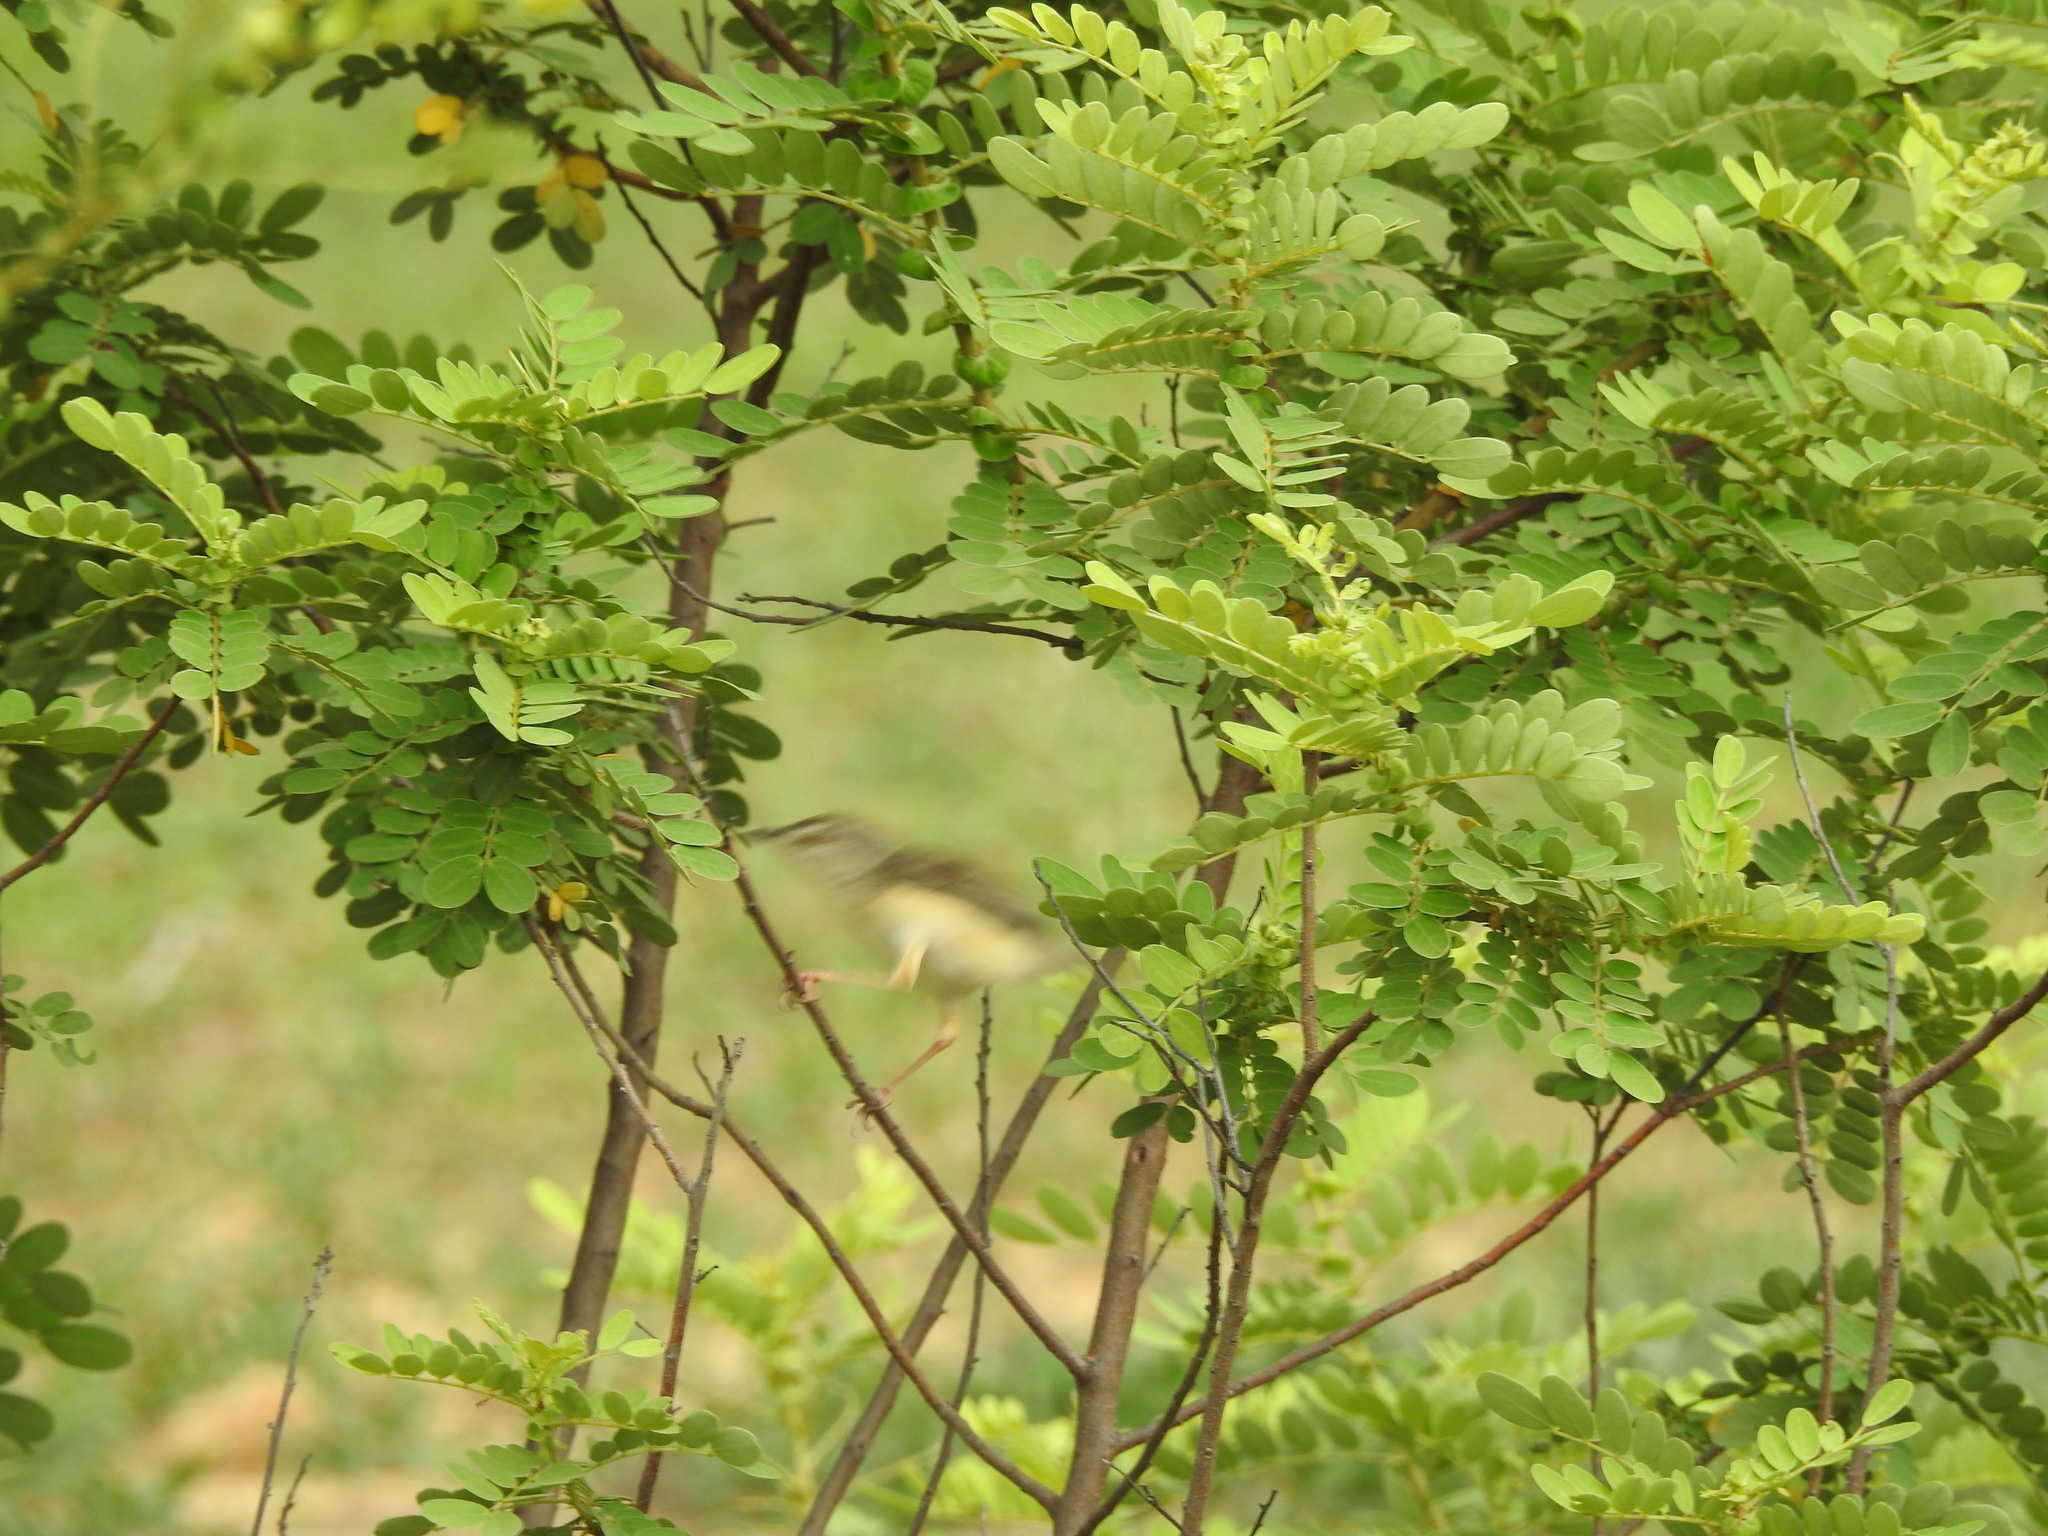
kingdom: Plantae
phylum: Tracheophyta
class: Magnoliopsida
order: Fabales
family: Fabaceae
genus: Senna
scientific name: Senna auriculata
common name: Tanner's cassia
